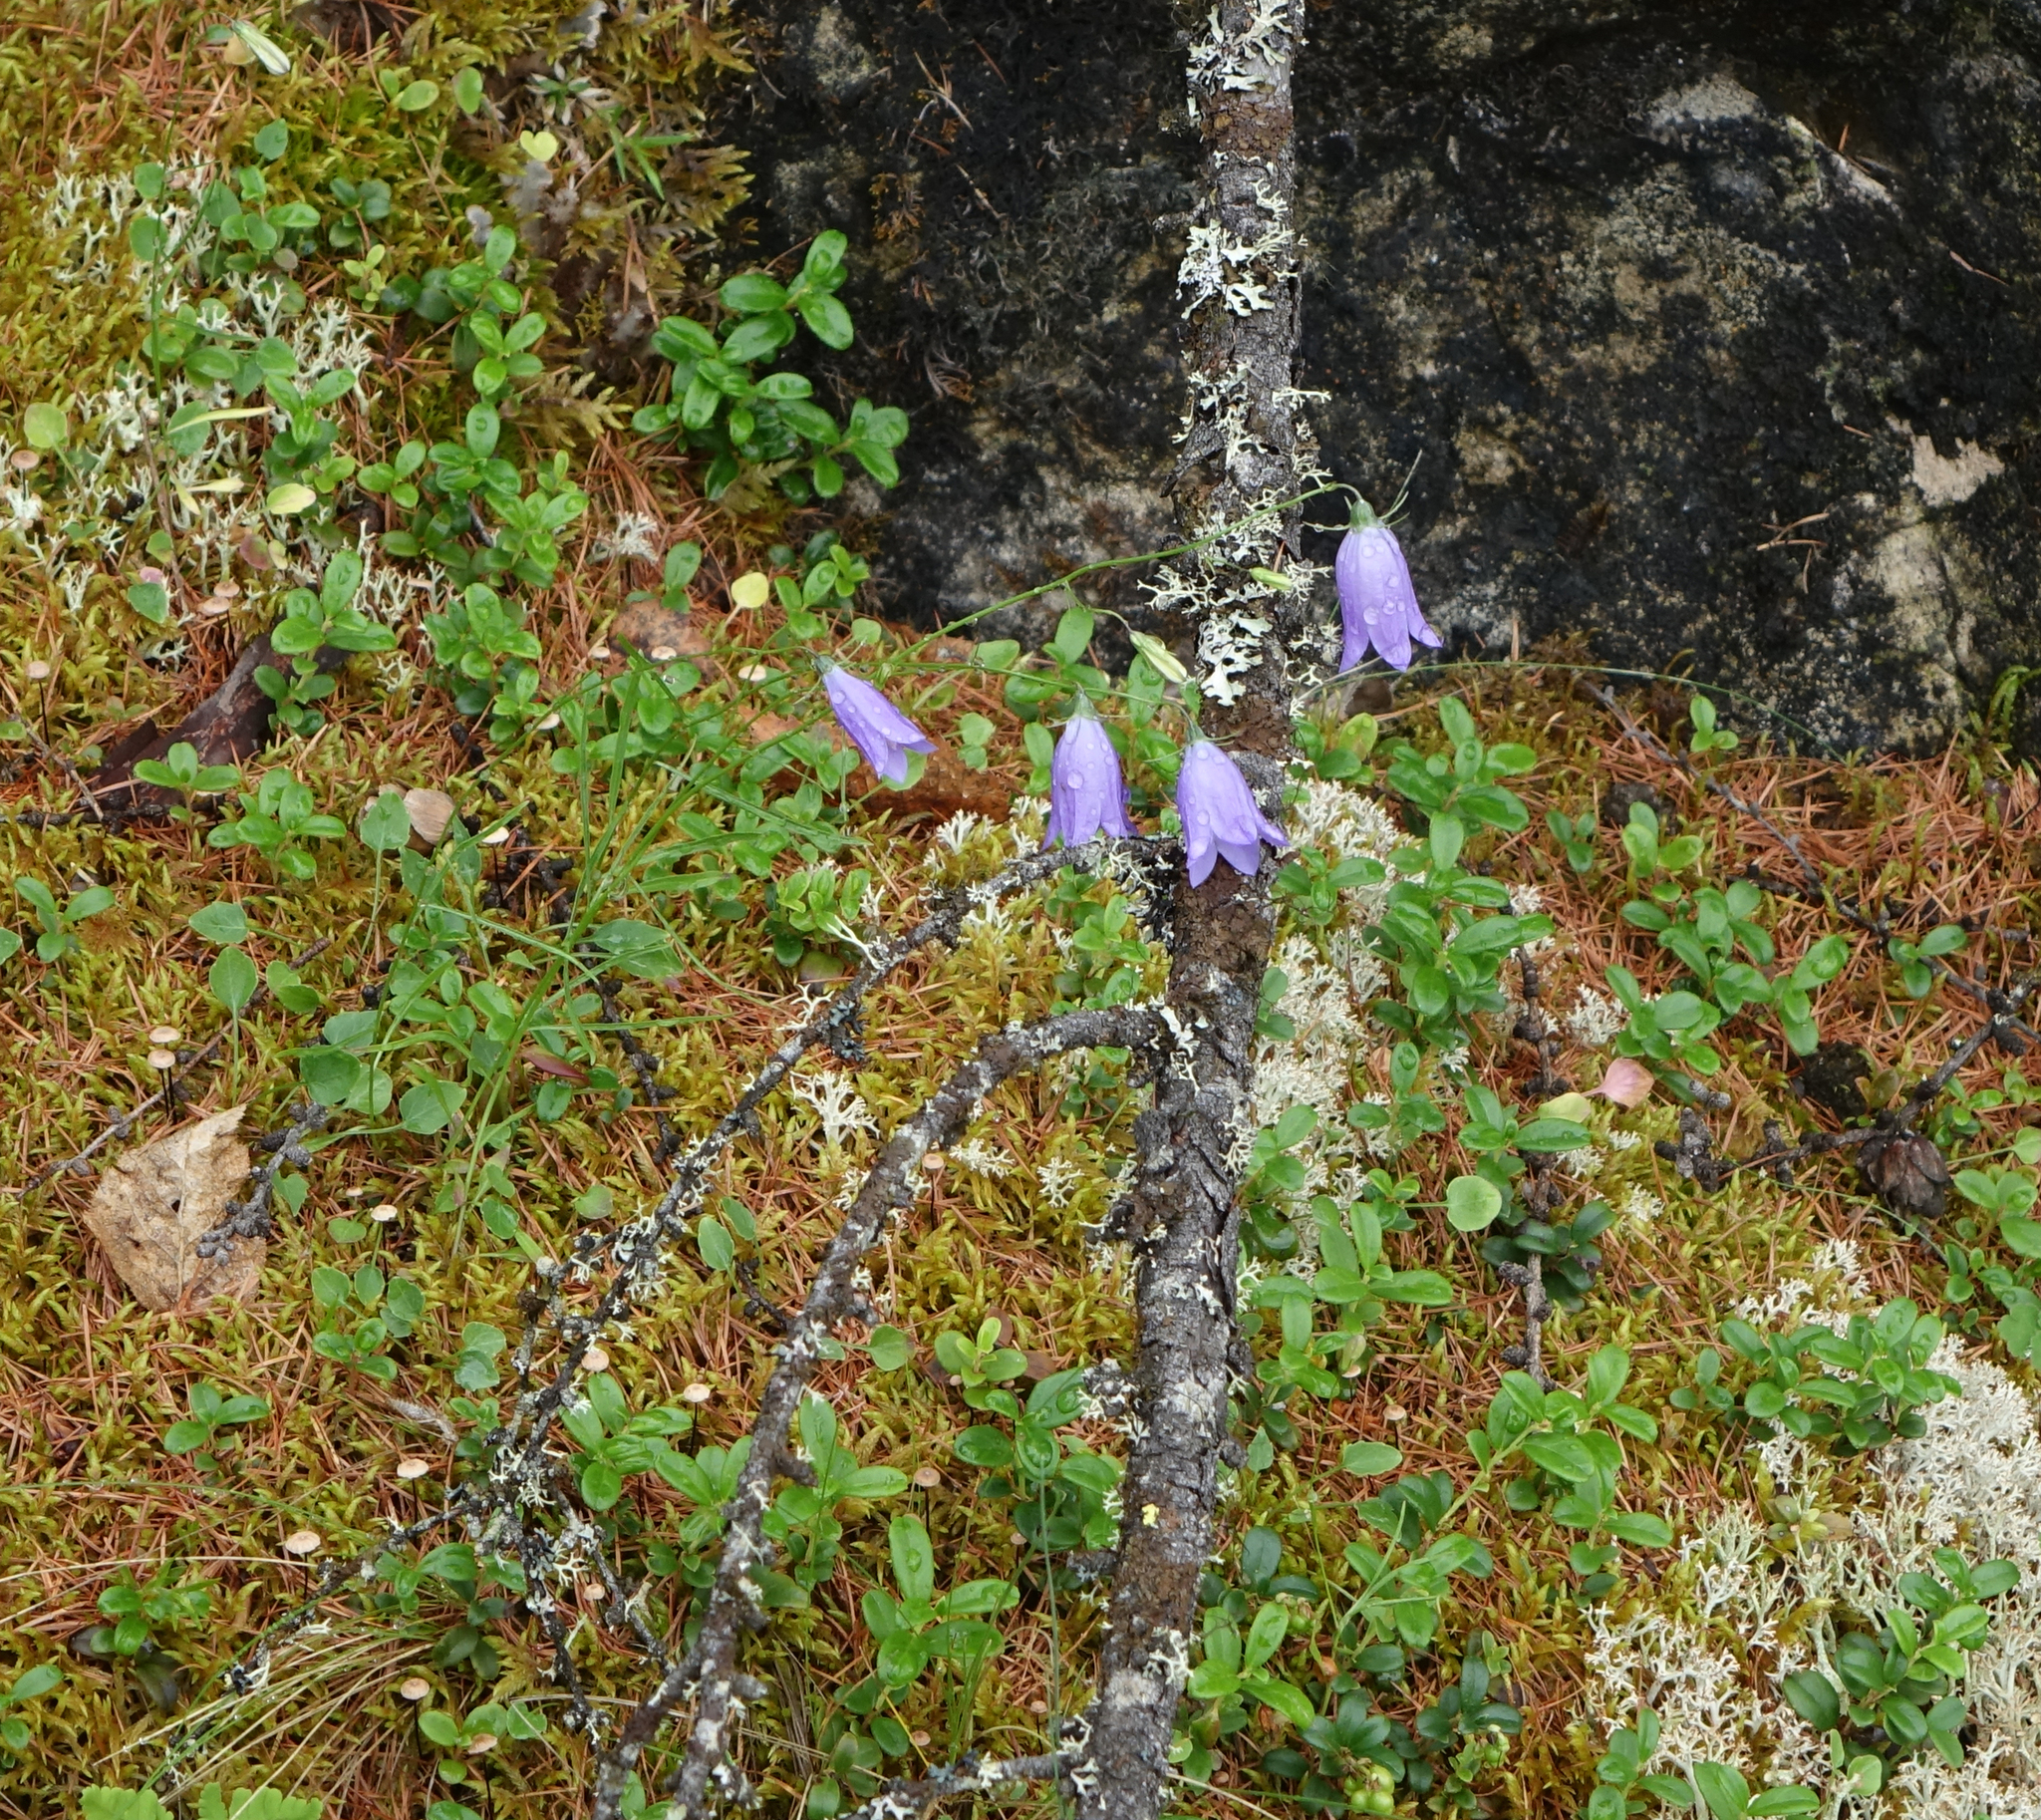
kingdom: Plantae
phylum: Tracheophyta
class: Magnoliopsida
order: Asterales
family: Campanulaceae
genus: Campanula
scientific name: Campanula rotundifolia
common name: Harebell
